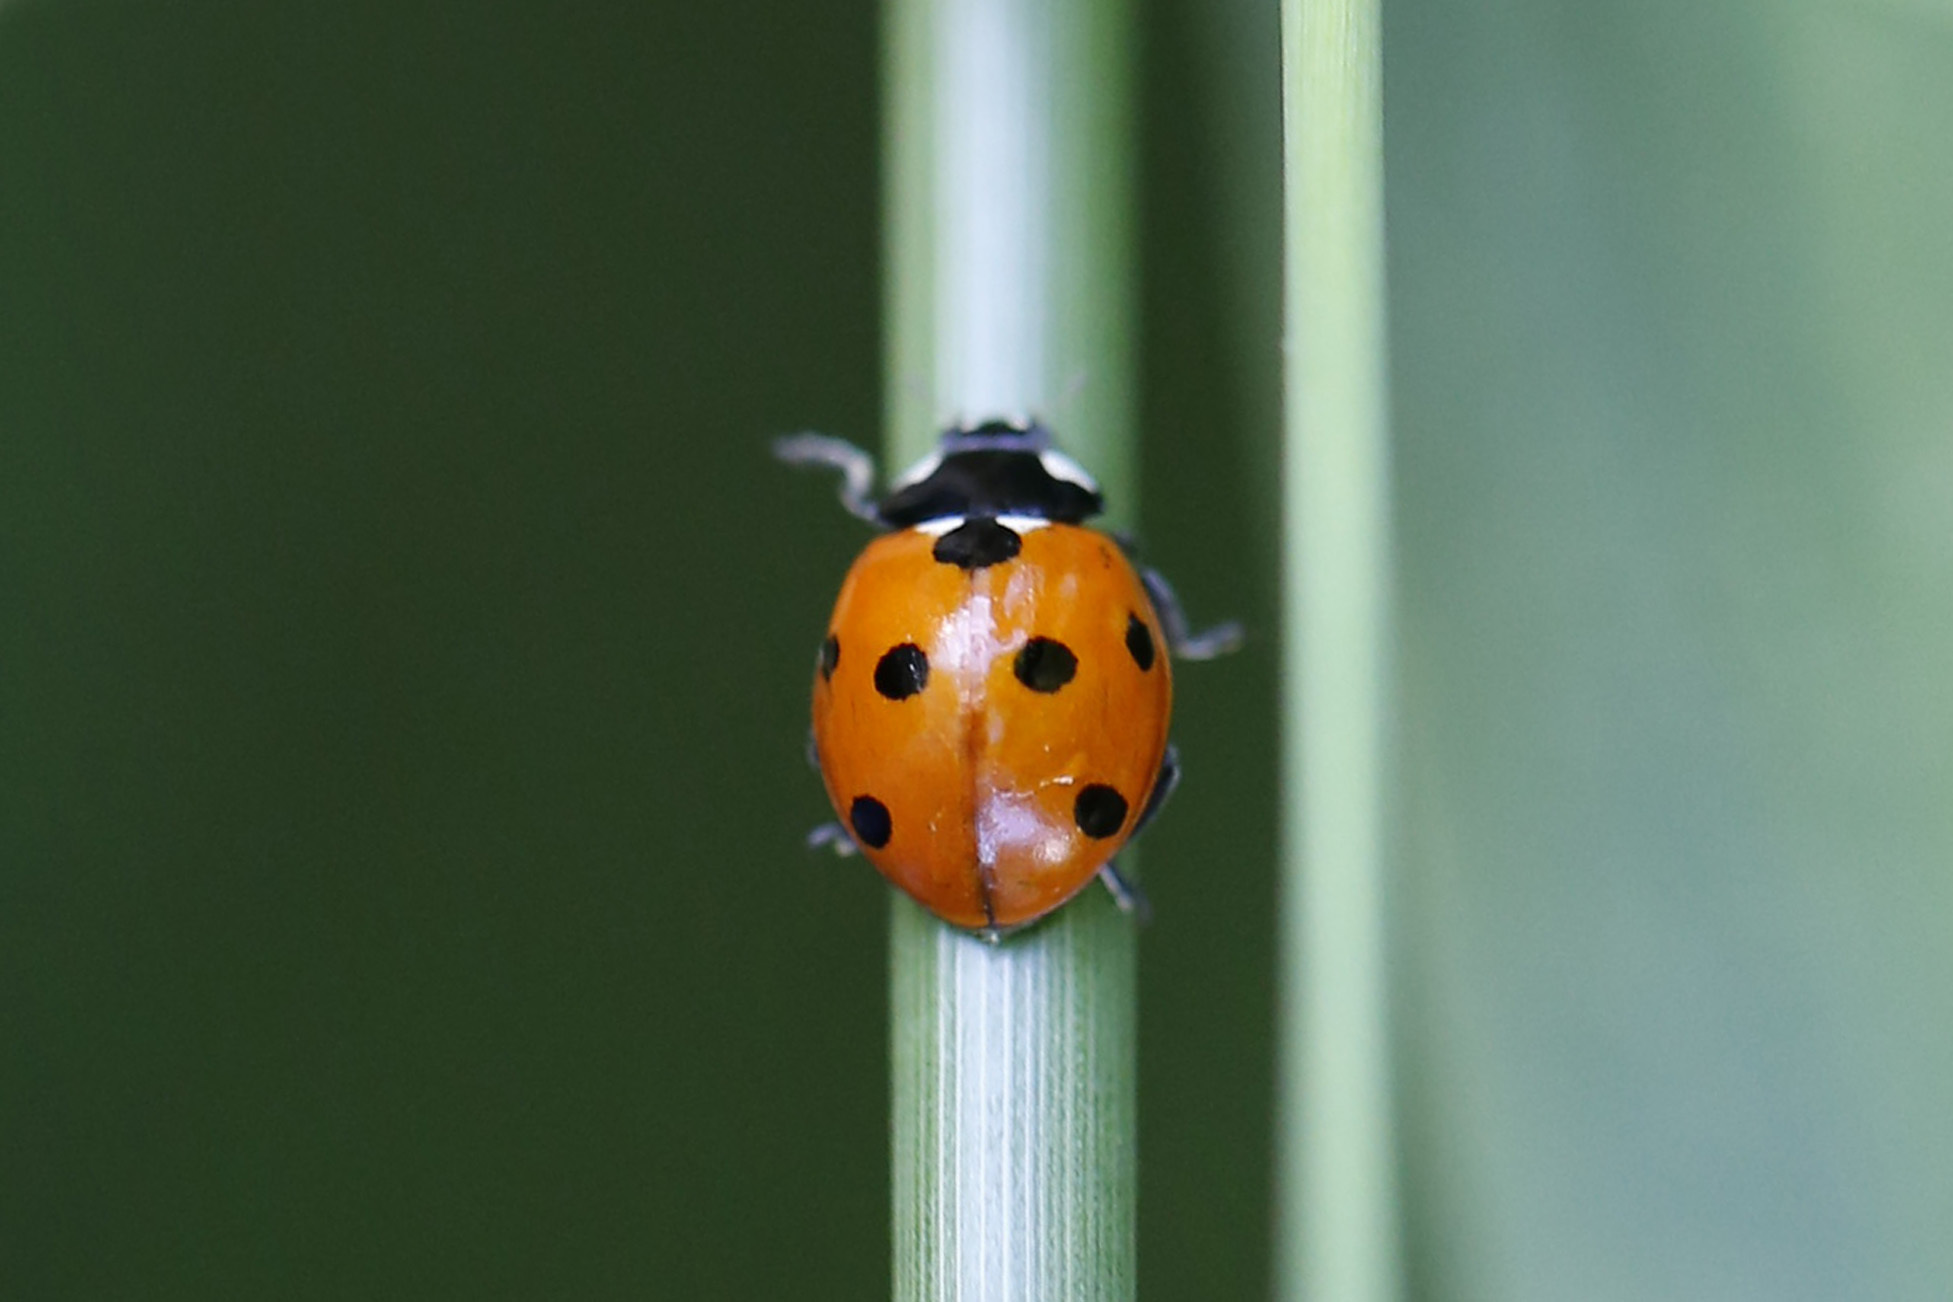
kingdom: Animalia
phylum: Arthropoda
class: Insecta
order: Coleoptera
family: Coccinellidae
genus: Coccinella
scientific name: Coccinella septempunctata
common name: Sevenspotted lady beetle
